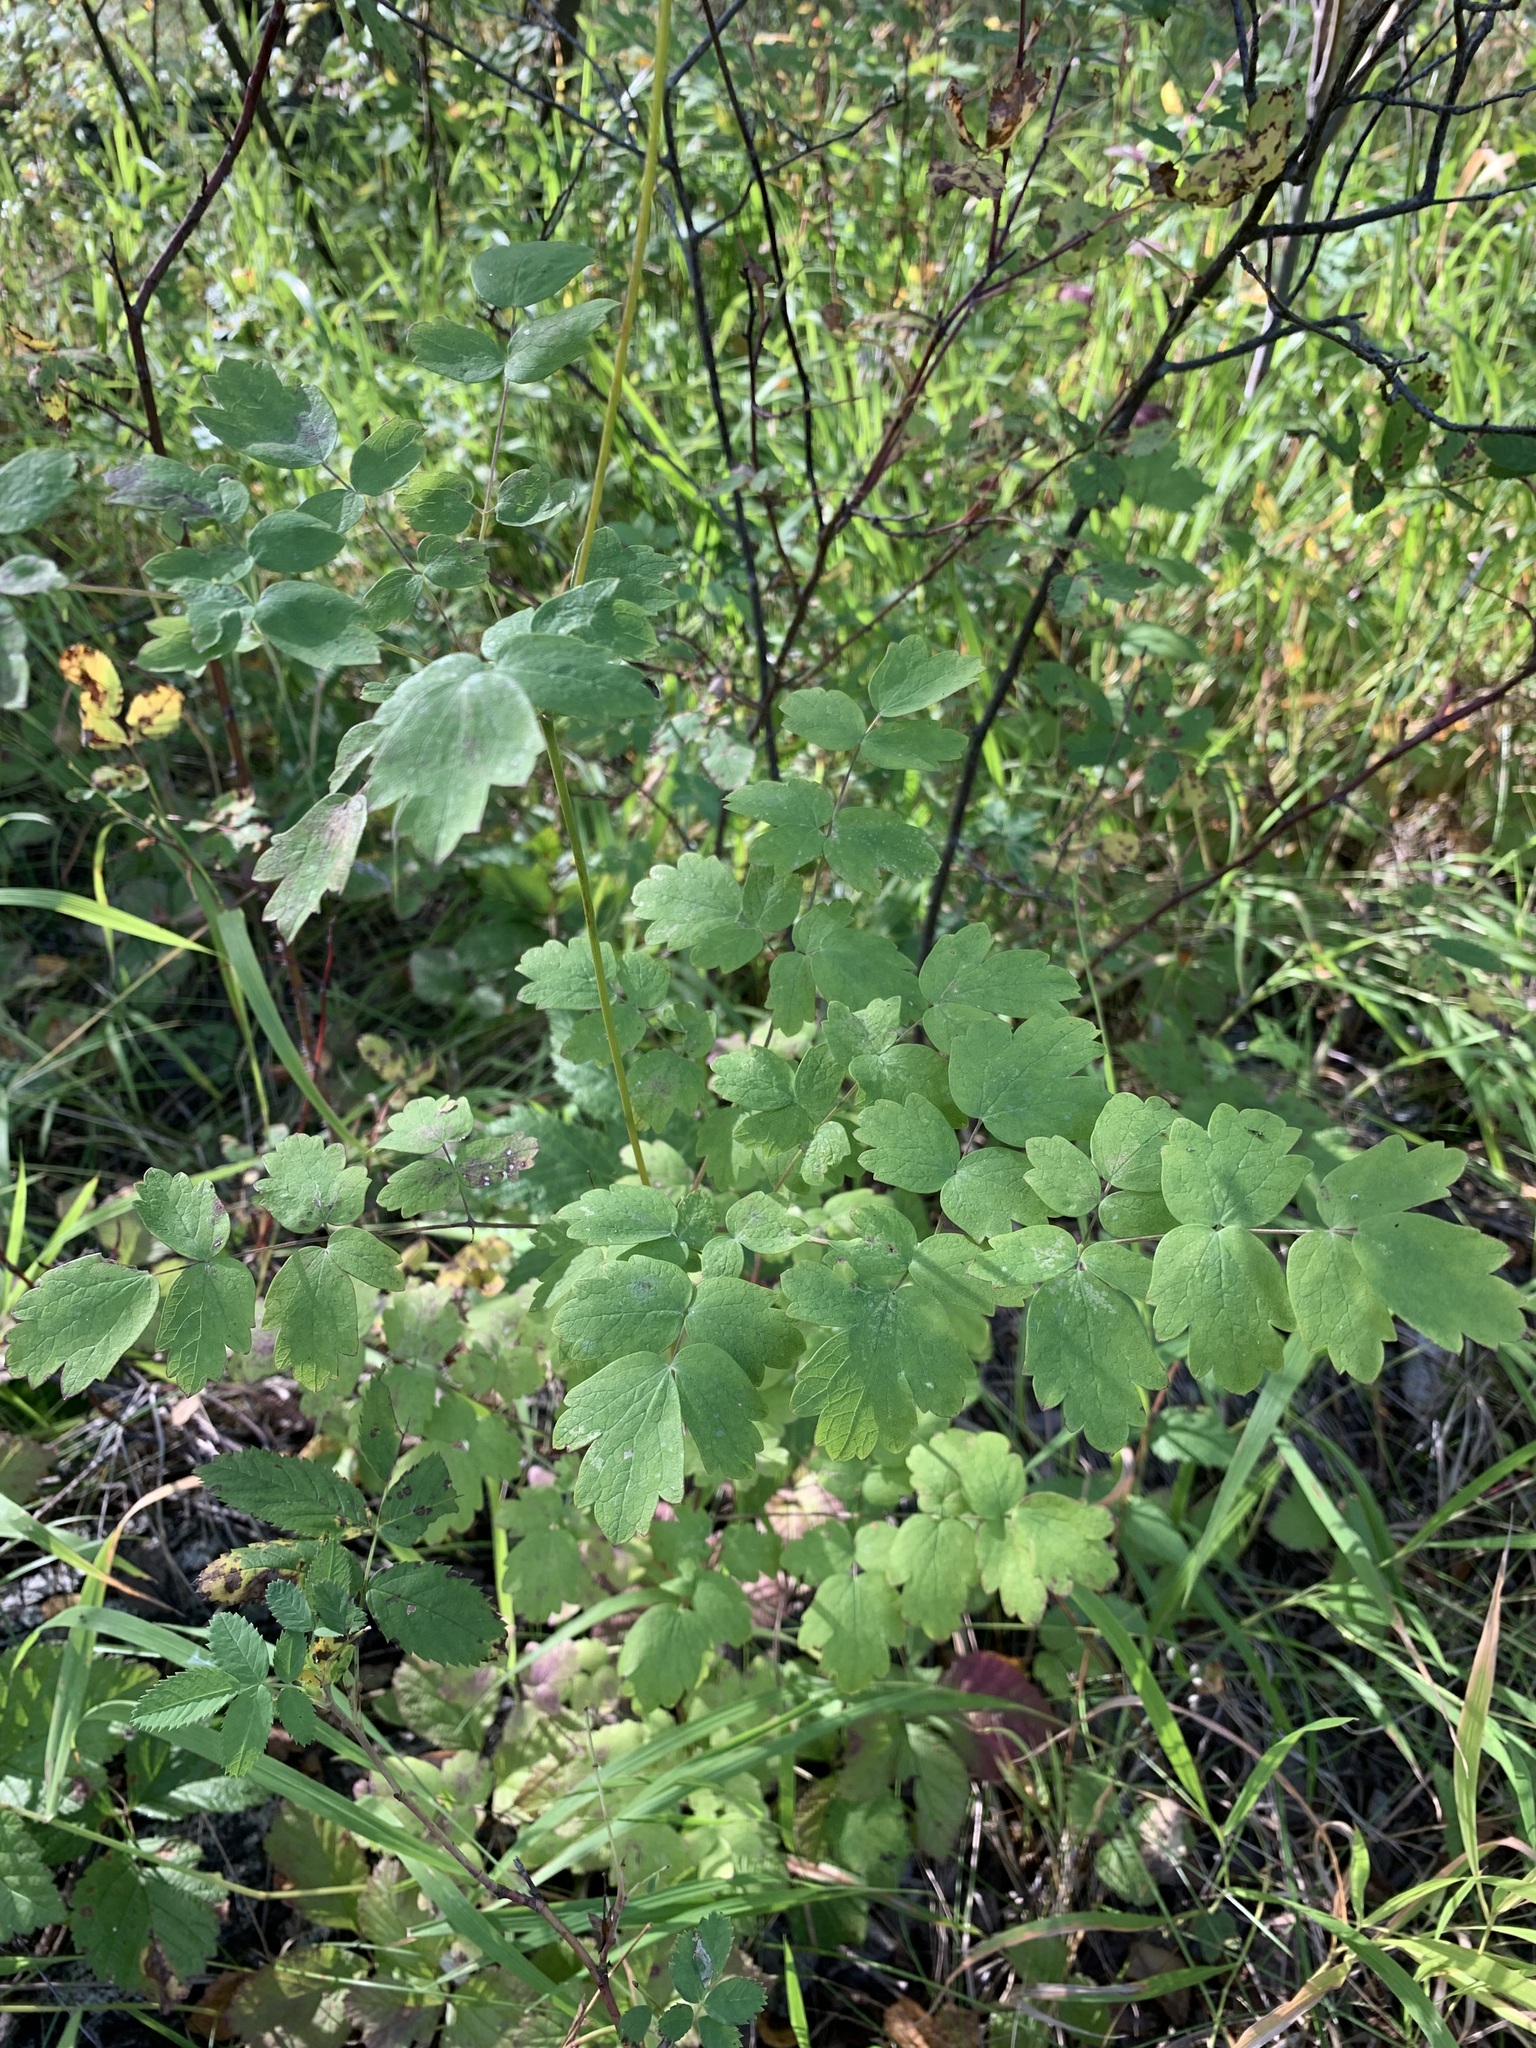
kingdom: Plantae
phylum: Tracheophyta
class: Magnoliopsida
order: Ranunculales
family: Ranunculaceae
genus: Thalictrum
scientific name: Thalictrum minus
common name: Lesser meadow-rue
